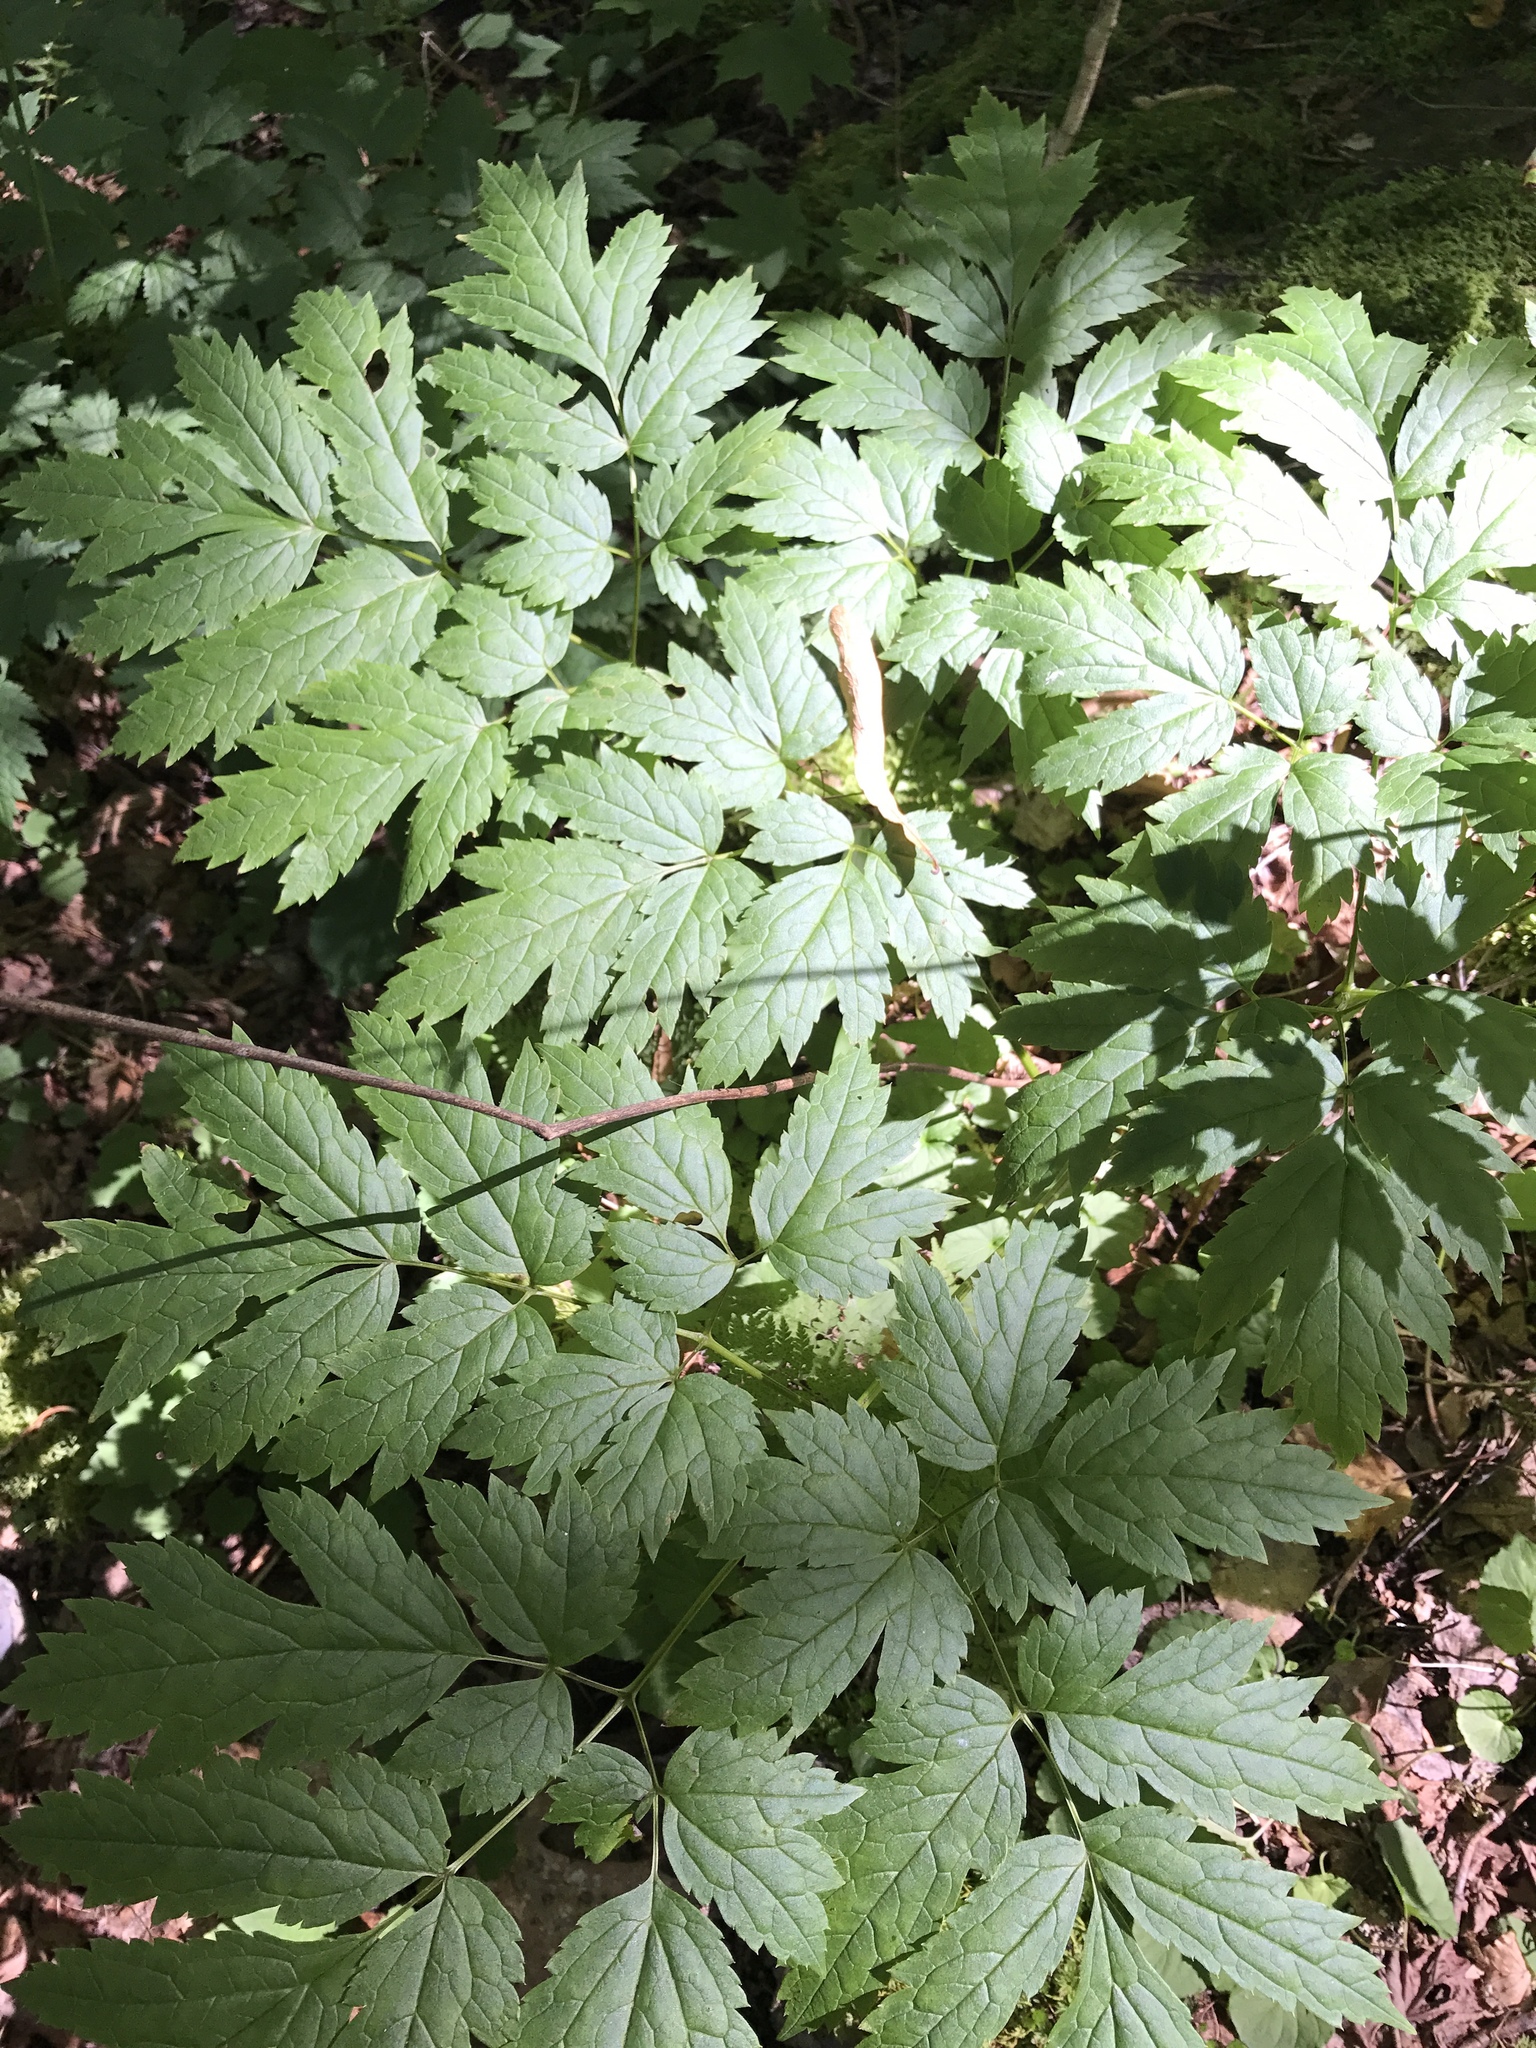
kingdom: Plantae
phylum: Tracheophyta
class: Magnoliopsida
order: Ranunculales
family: Ranunculaceae
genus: Actaea
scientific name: Actaea podocarpa
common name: American bugbane
